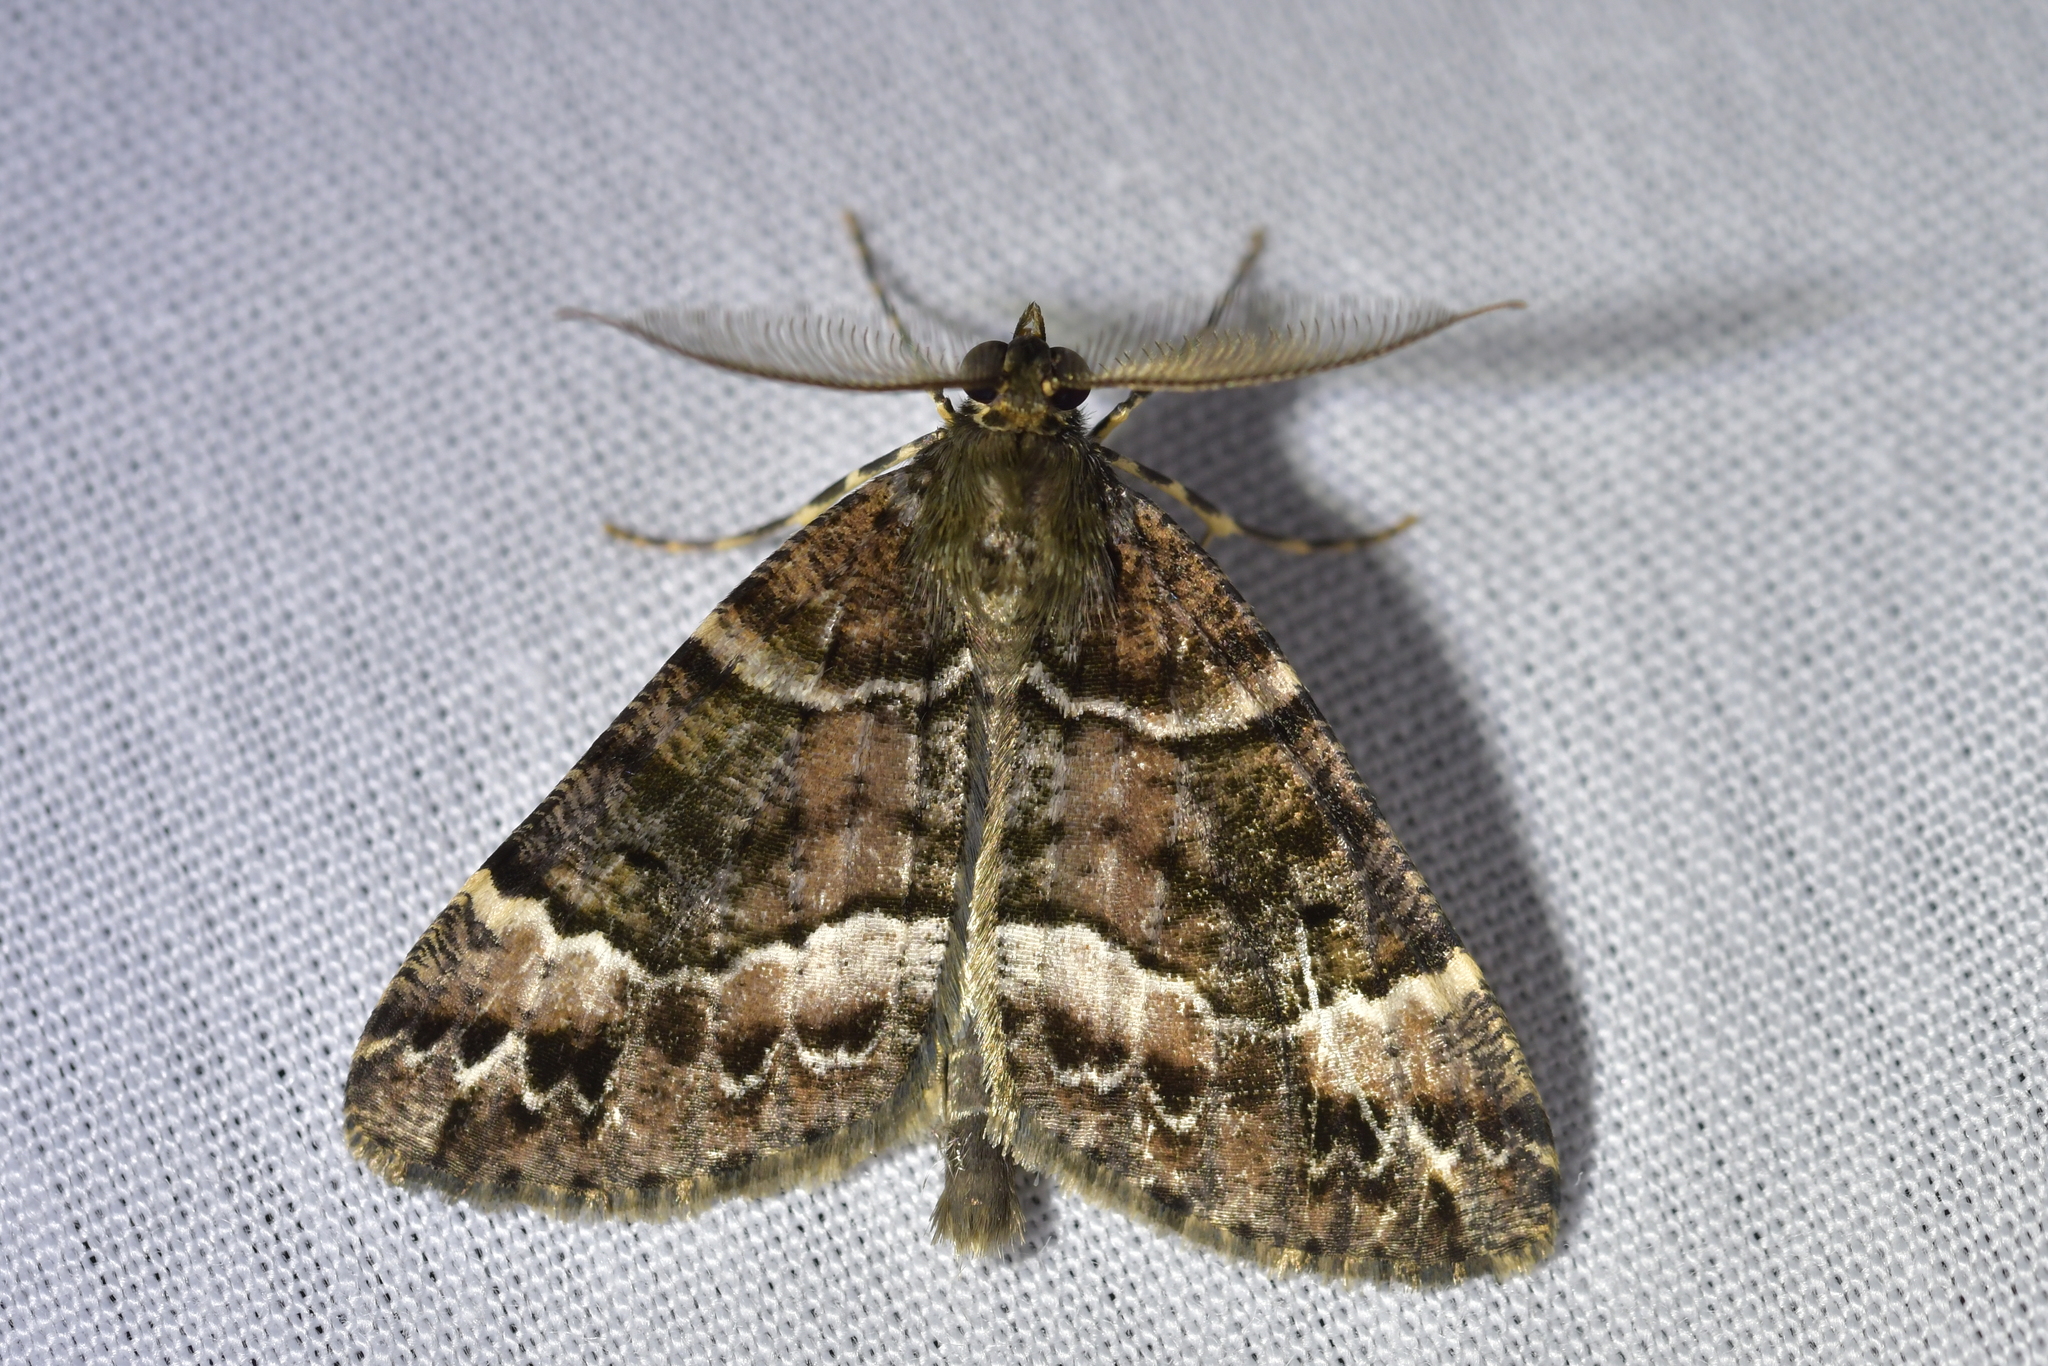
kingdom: Animalia
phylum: Arthropoda
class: Insecta
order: Lepidoptera
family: Geometridae
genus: Pseudocoremia
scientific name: Pseudocoremia productata
